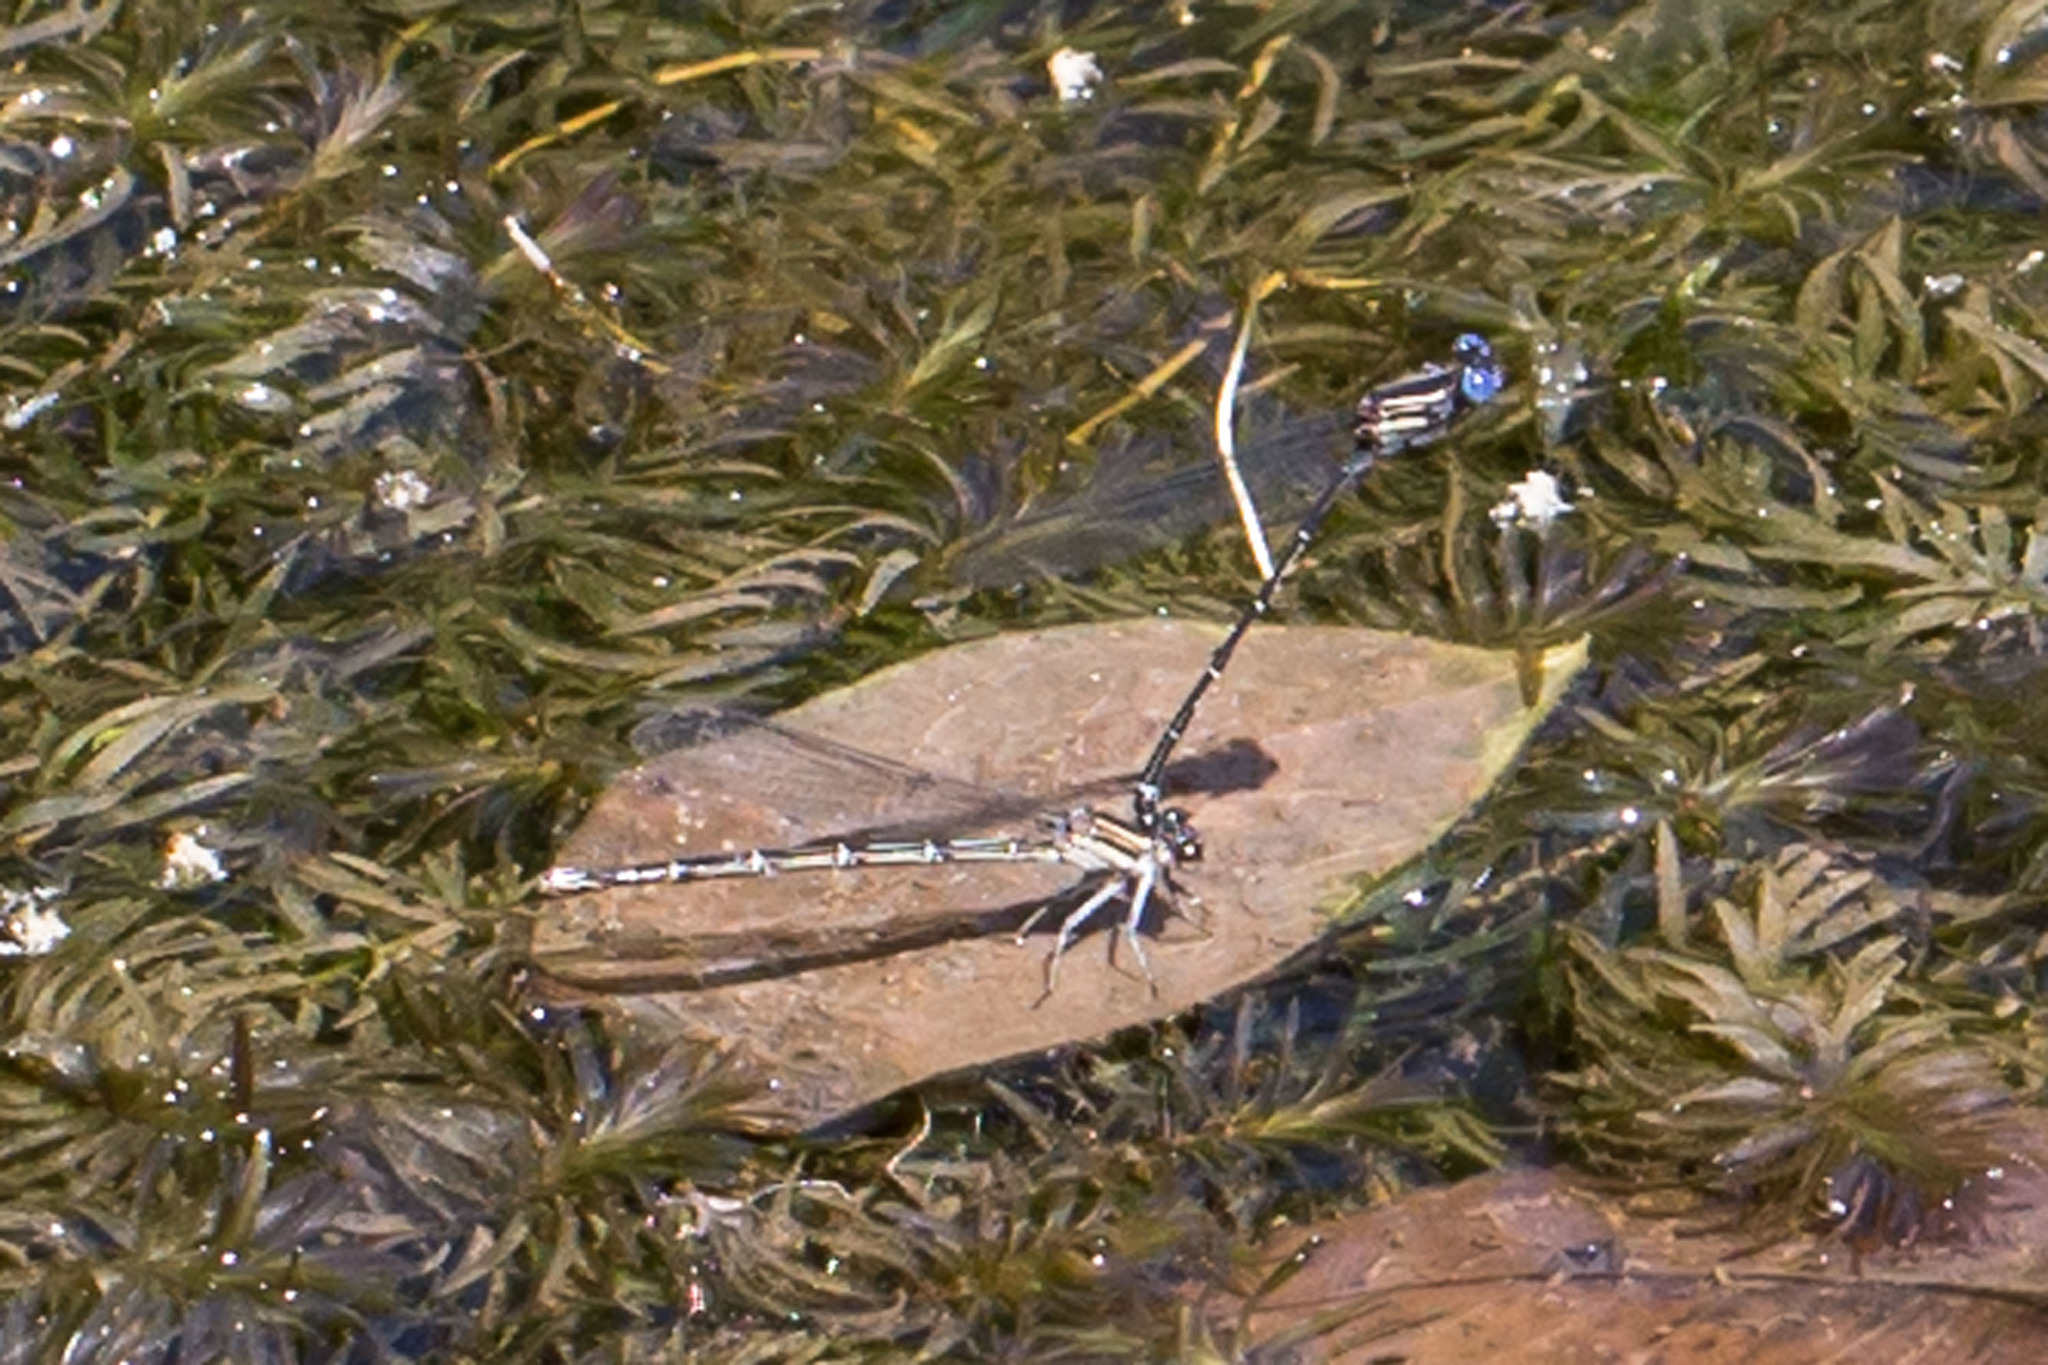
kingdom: Animalia
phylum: Arthropoda
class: Insecta
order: Odonata
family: Coenagrionidae
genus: Argia
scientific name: Argia translata
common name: Dusky dancer
